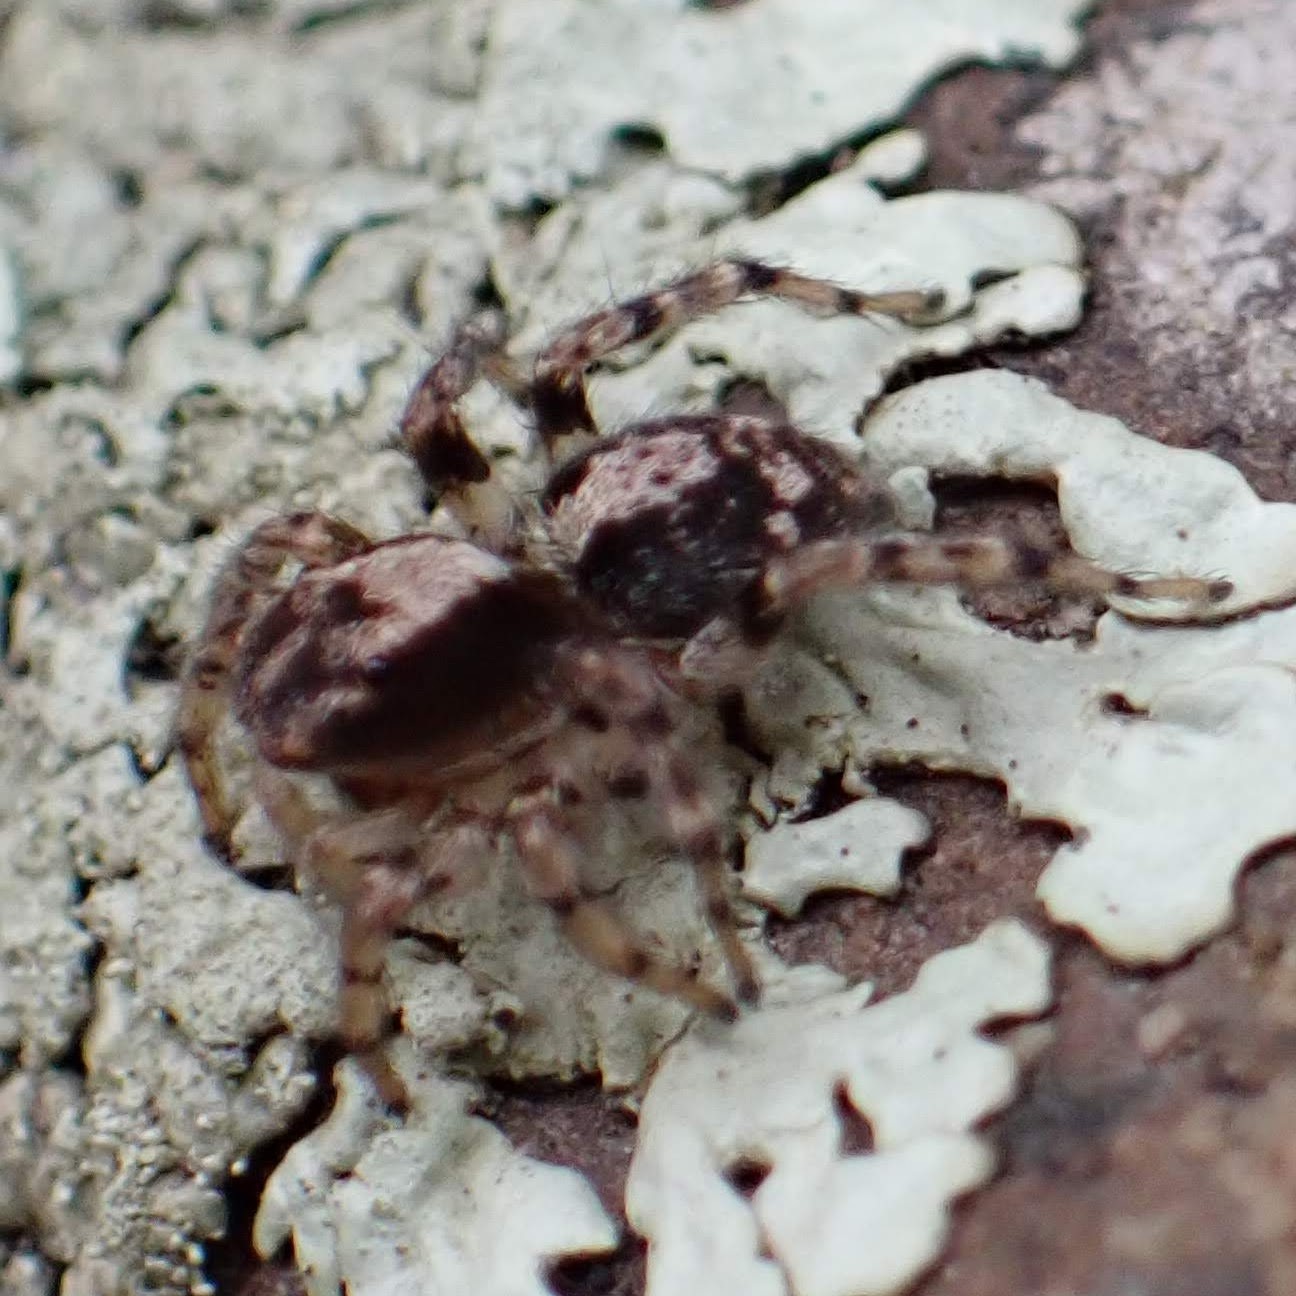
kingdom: Animalia
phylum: Arthropoda
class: Arachnida
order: Araneae
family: Salticidae
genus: Naphrys
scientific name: Naphrys pulex
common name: Flea jumping spider
